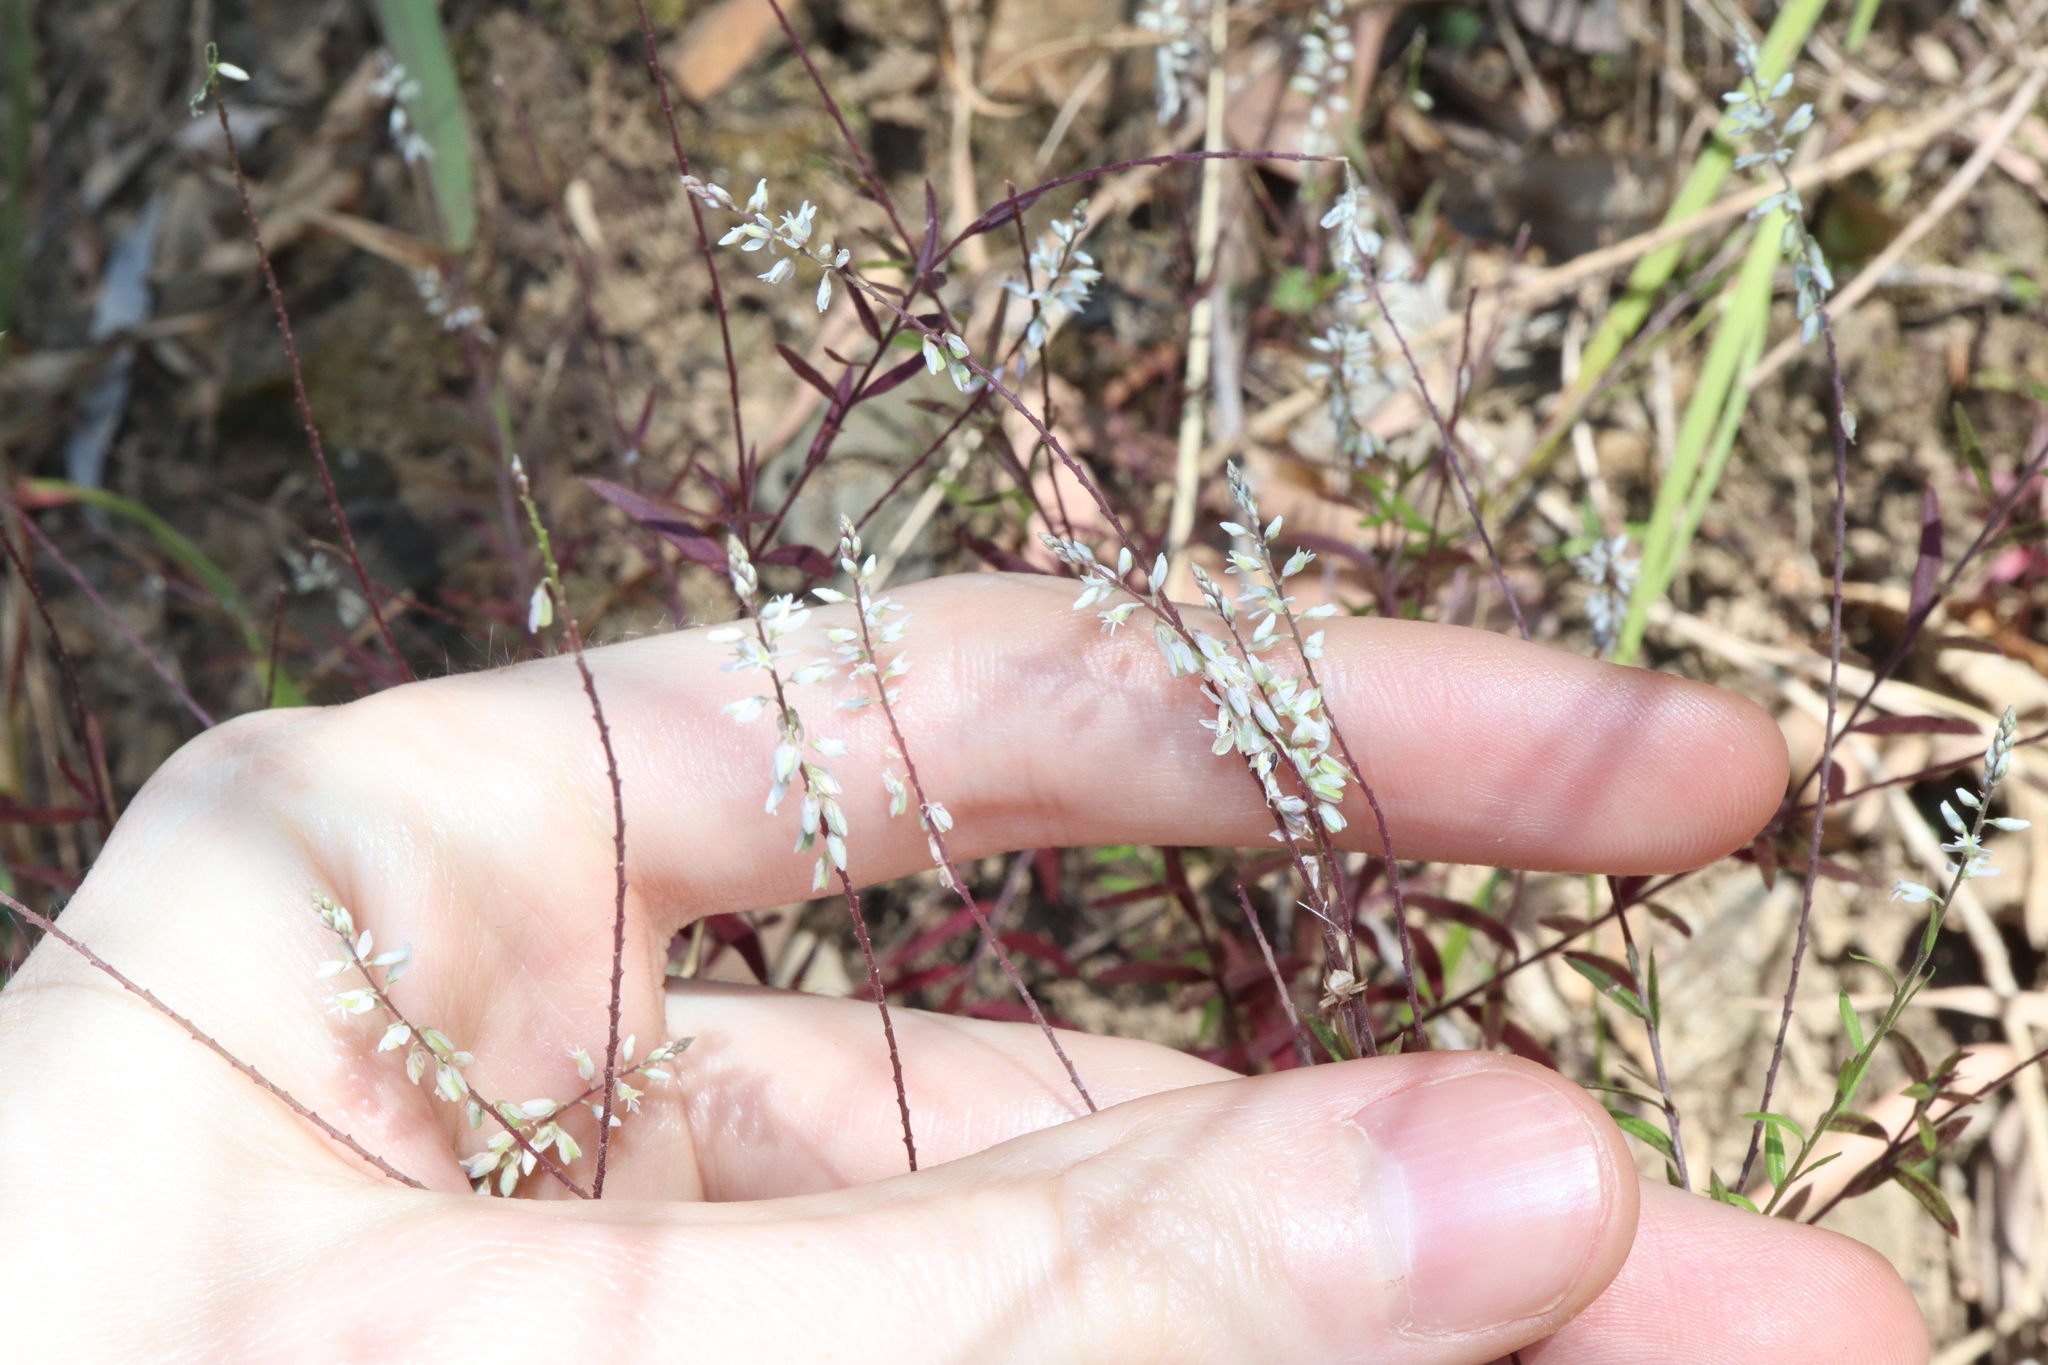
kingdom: Plantae
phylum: Tracheophyta
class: Magnoliopsida
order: Fabales
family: Polygalaceae
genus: Polygala
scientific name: Polygala paniculata
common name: Orosne
